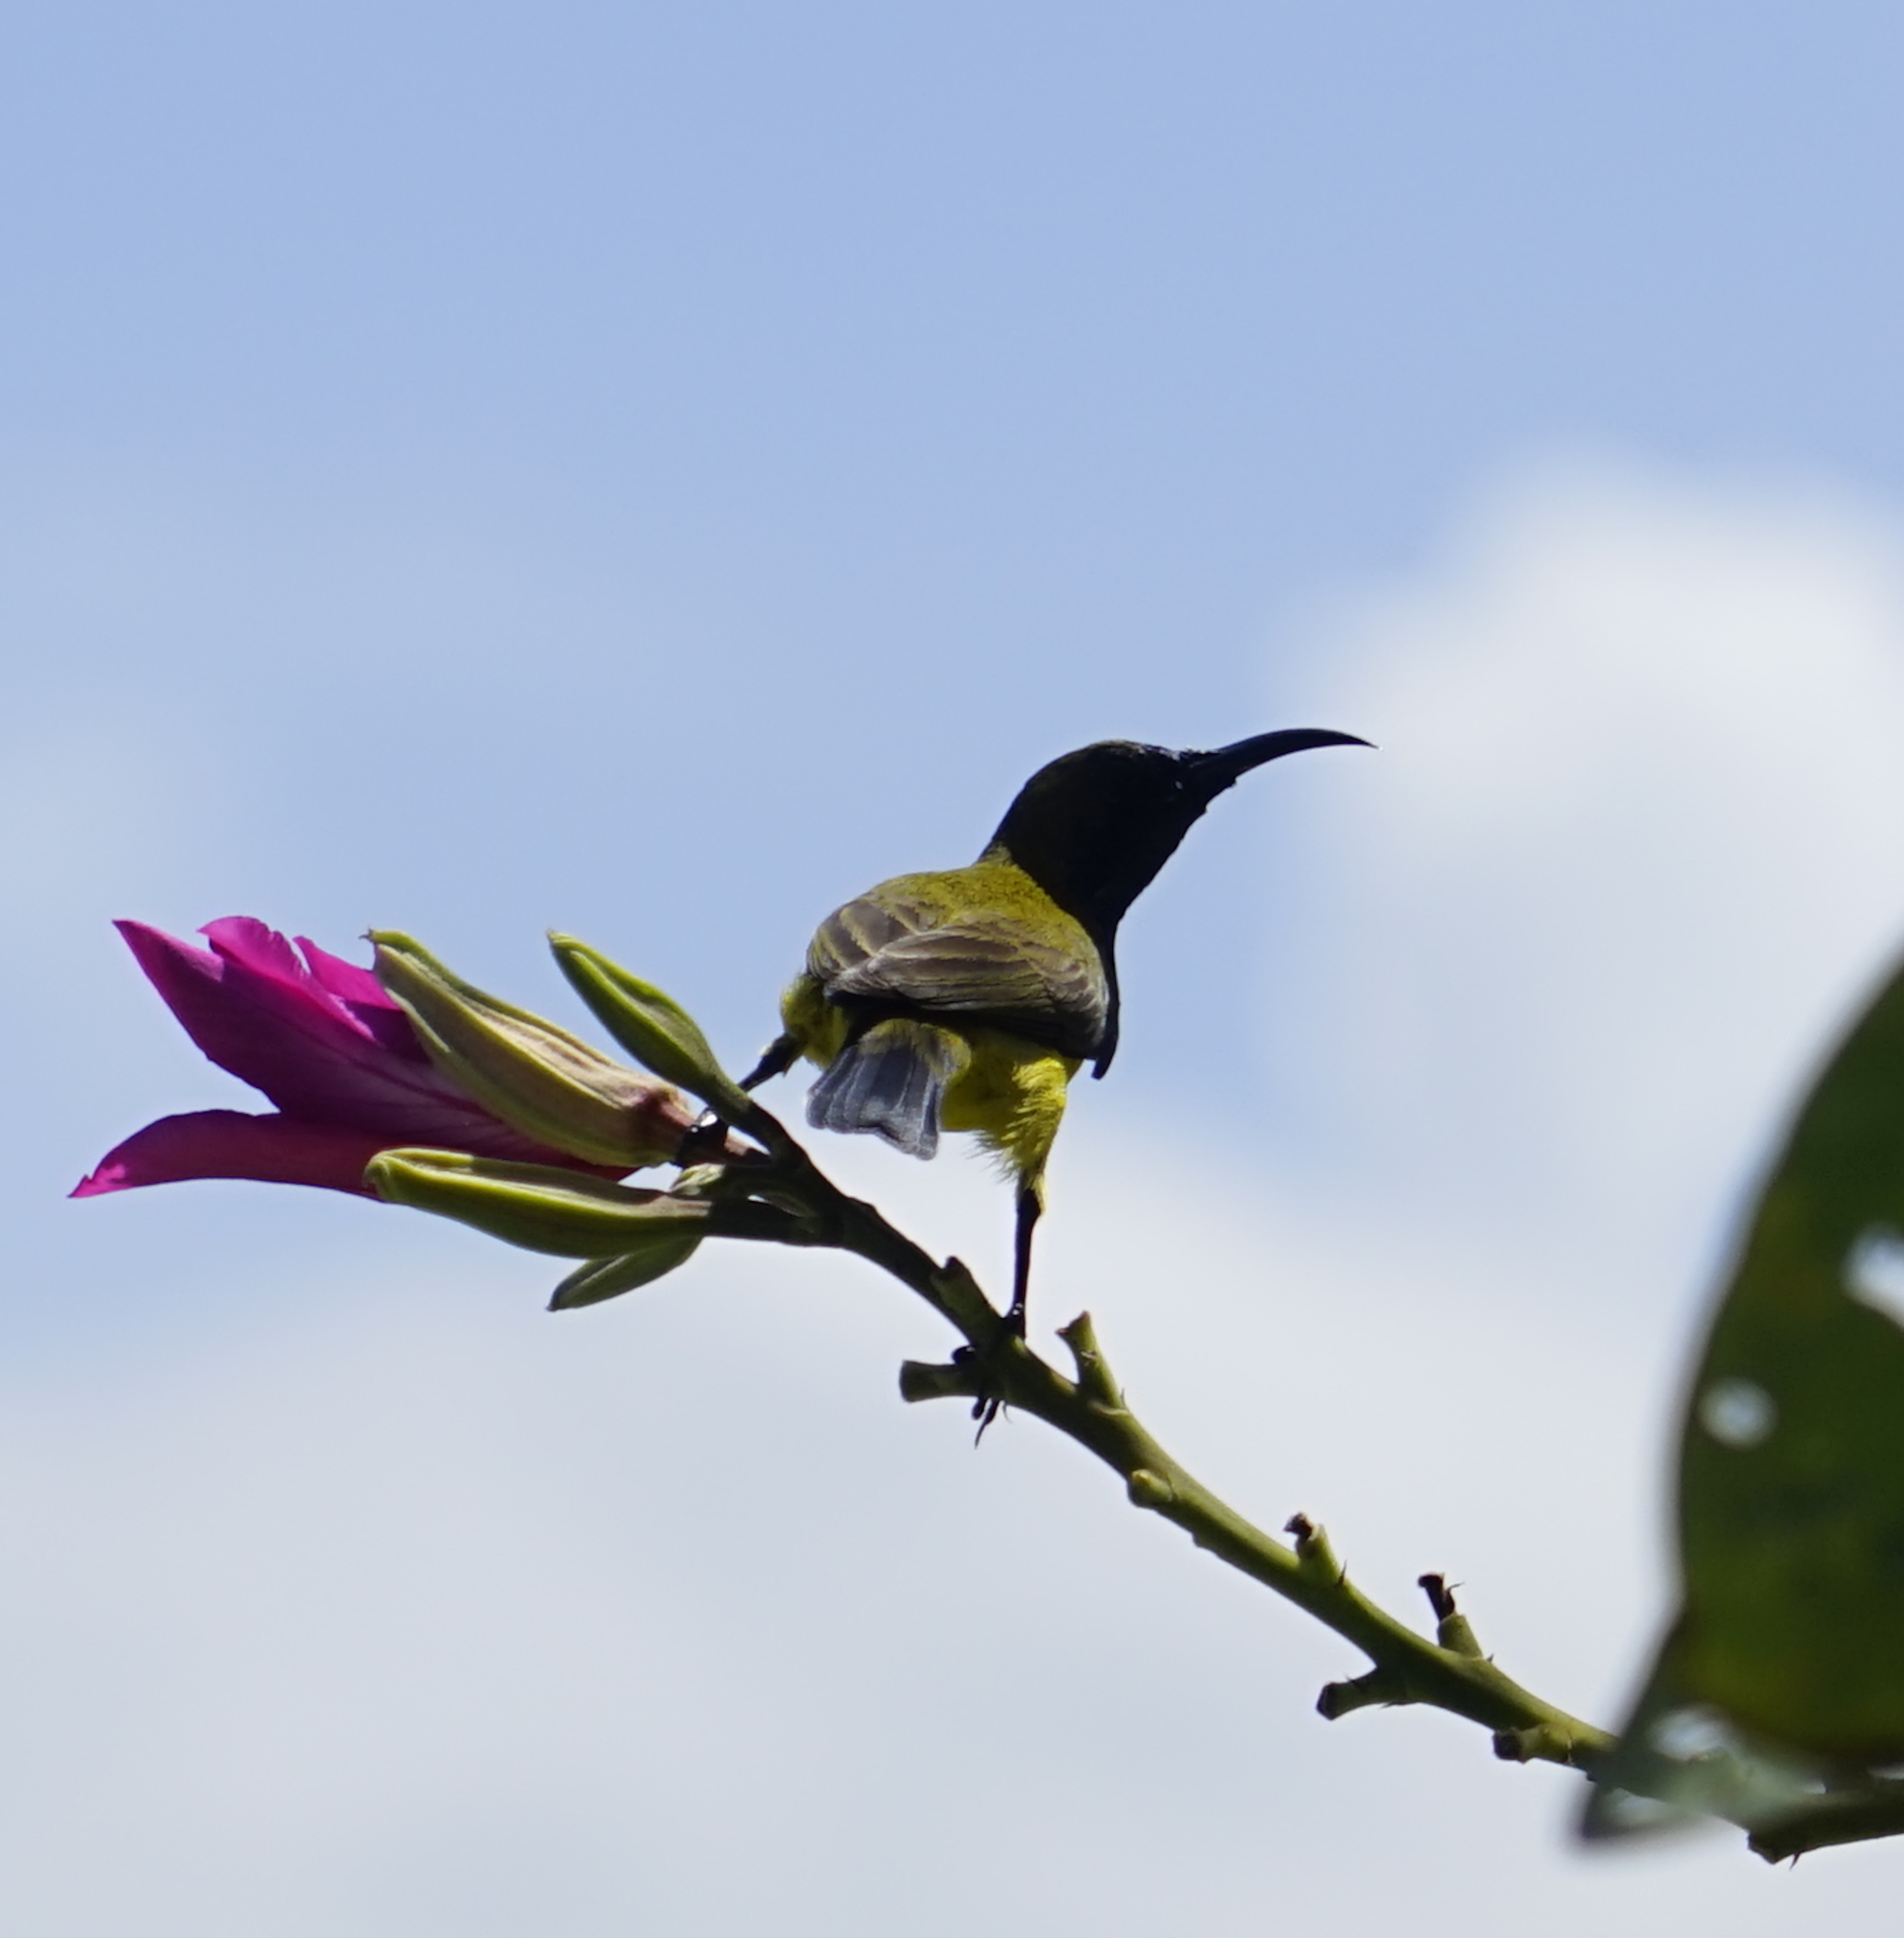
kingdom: Animalia
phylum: Chordata
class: Aves
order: Passeriformes
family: Nectariniidae
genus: Cinnyris
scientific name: Cinnyris
